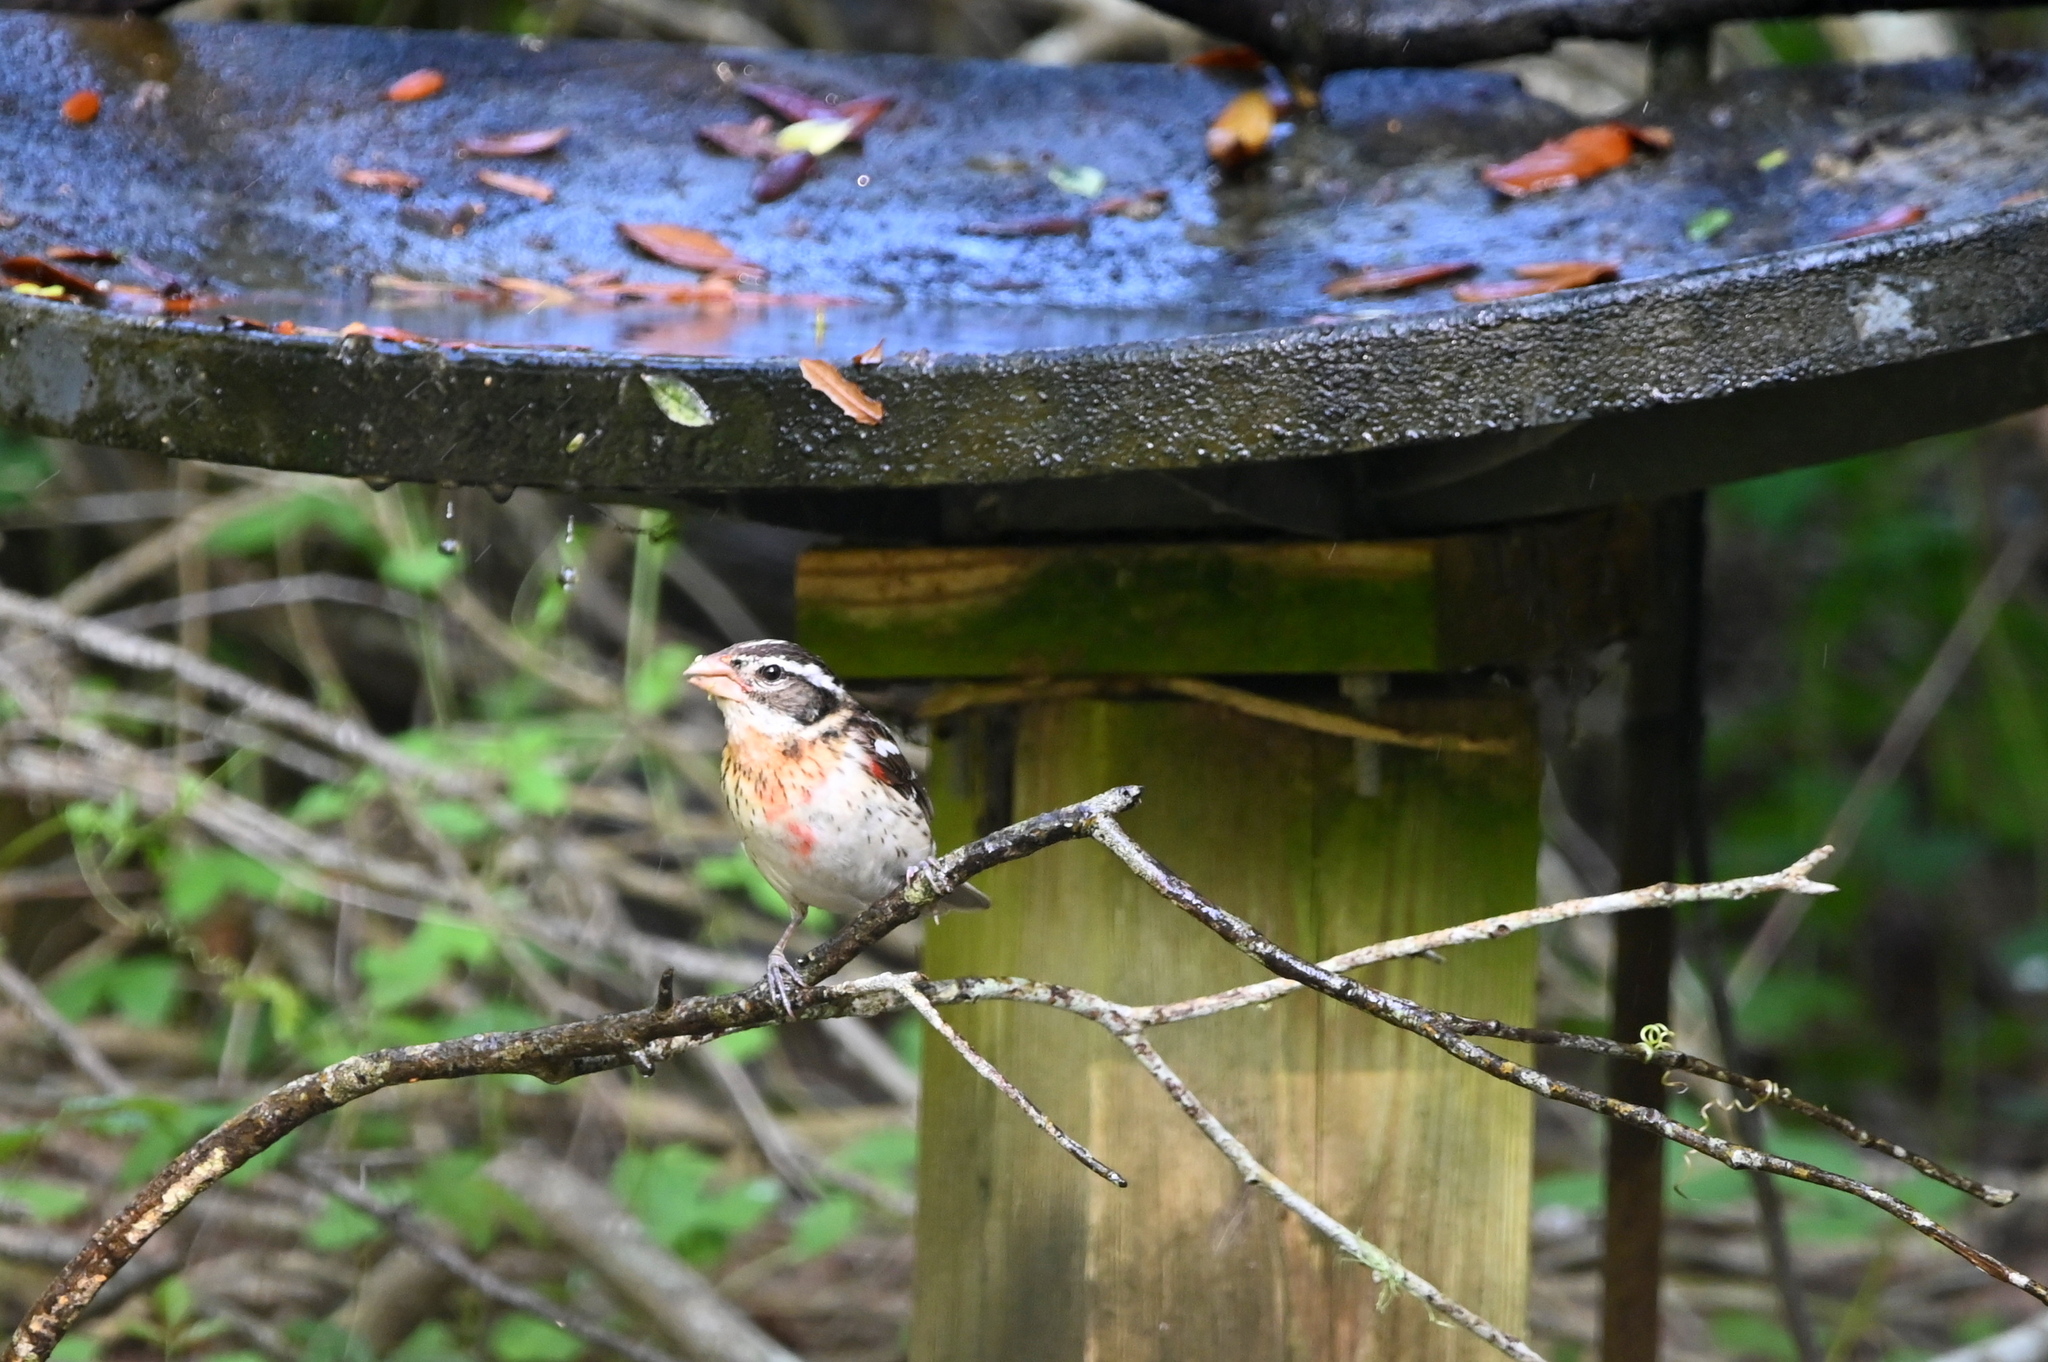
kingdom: Animalia
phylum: Chordata
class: Aves
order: Passeriformes
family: Cardinalidae
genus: Pheucticus
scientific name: Pheucticus ludovicianus
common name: Rose-breasted grosbeak
